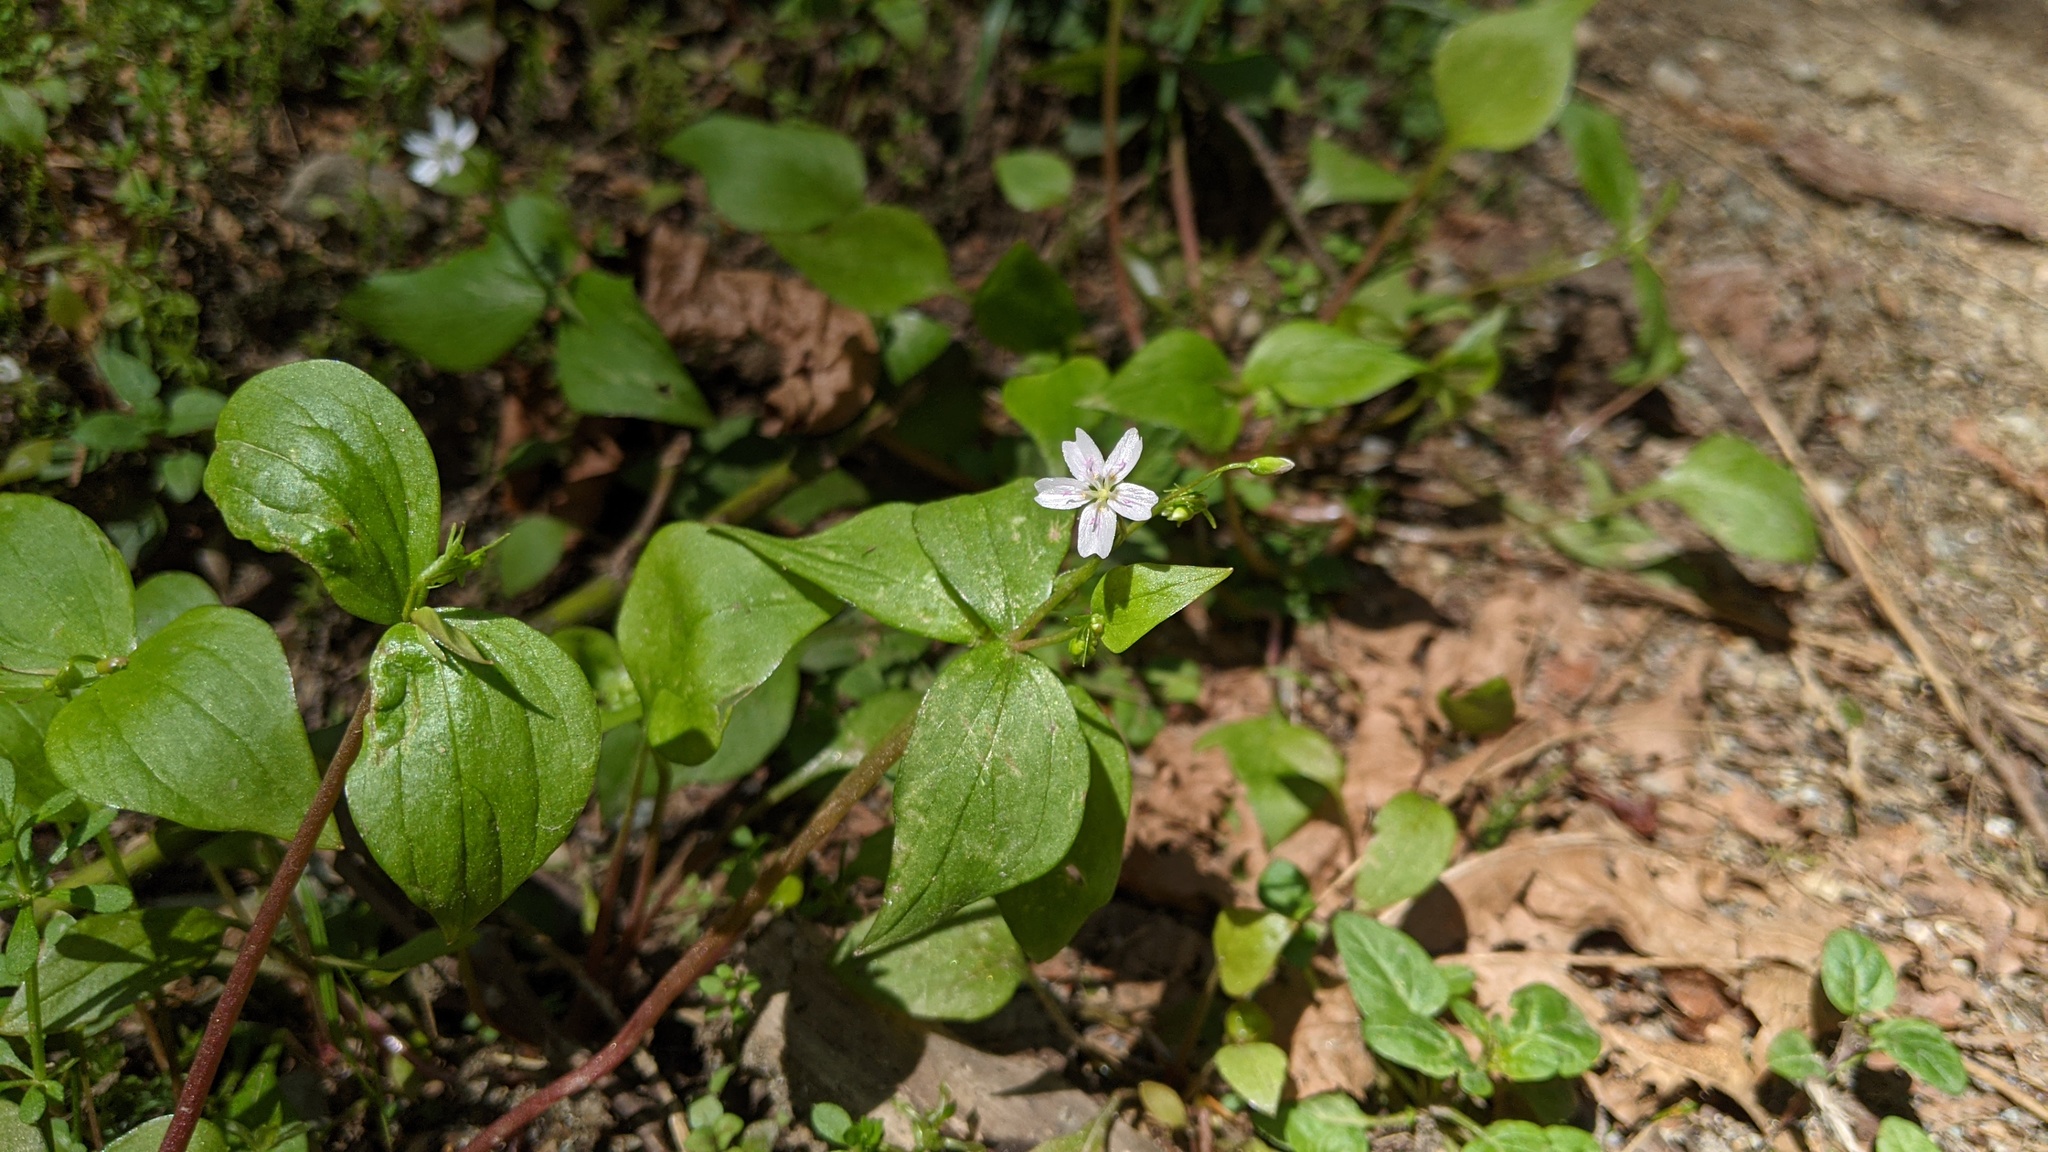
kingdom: Plantae
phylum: Tracheophyta
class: Magnoliopsida
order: Caryophyllales
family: Montiaceae
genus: Claytonia
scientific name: Claytonia sibirica
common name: Pink purslane
